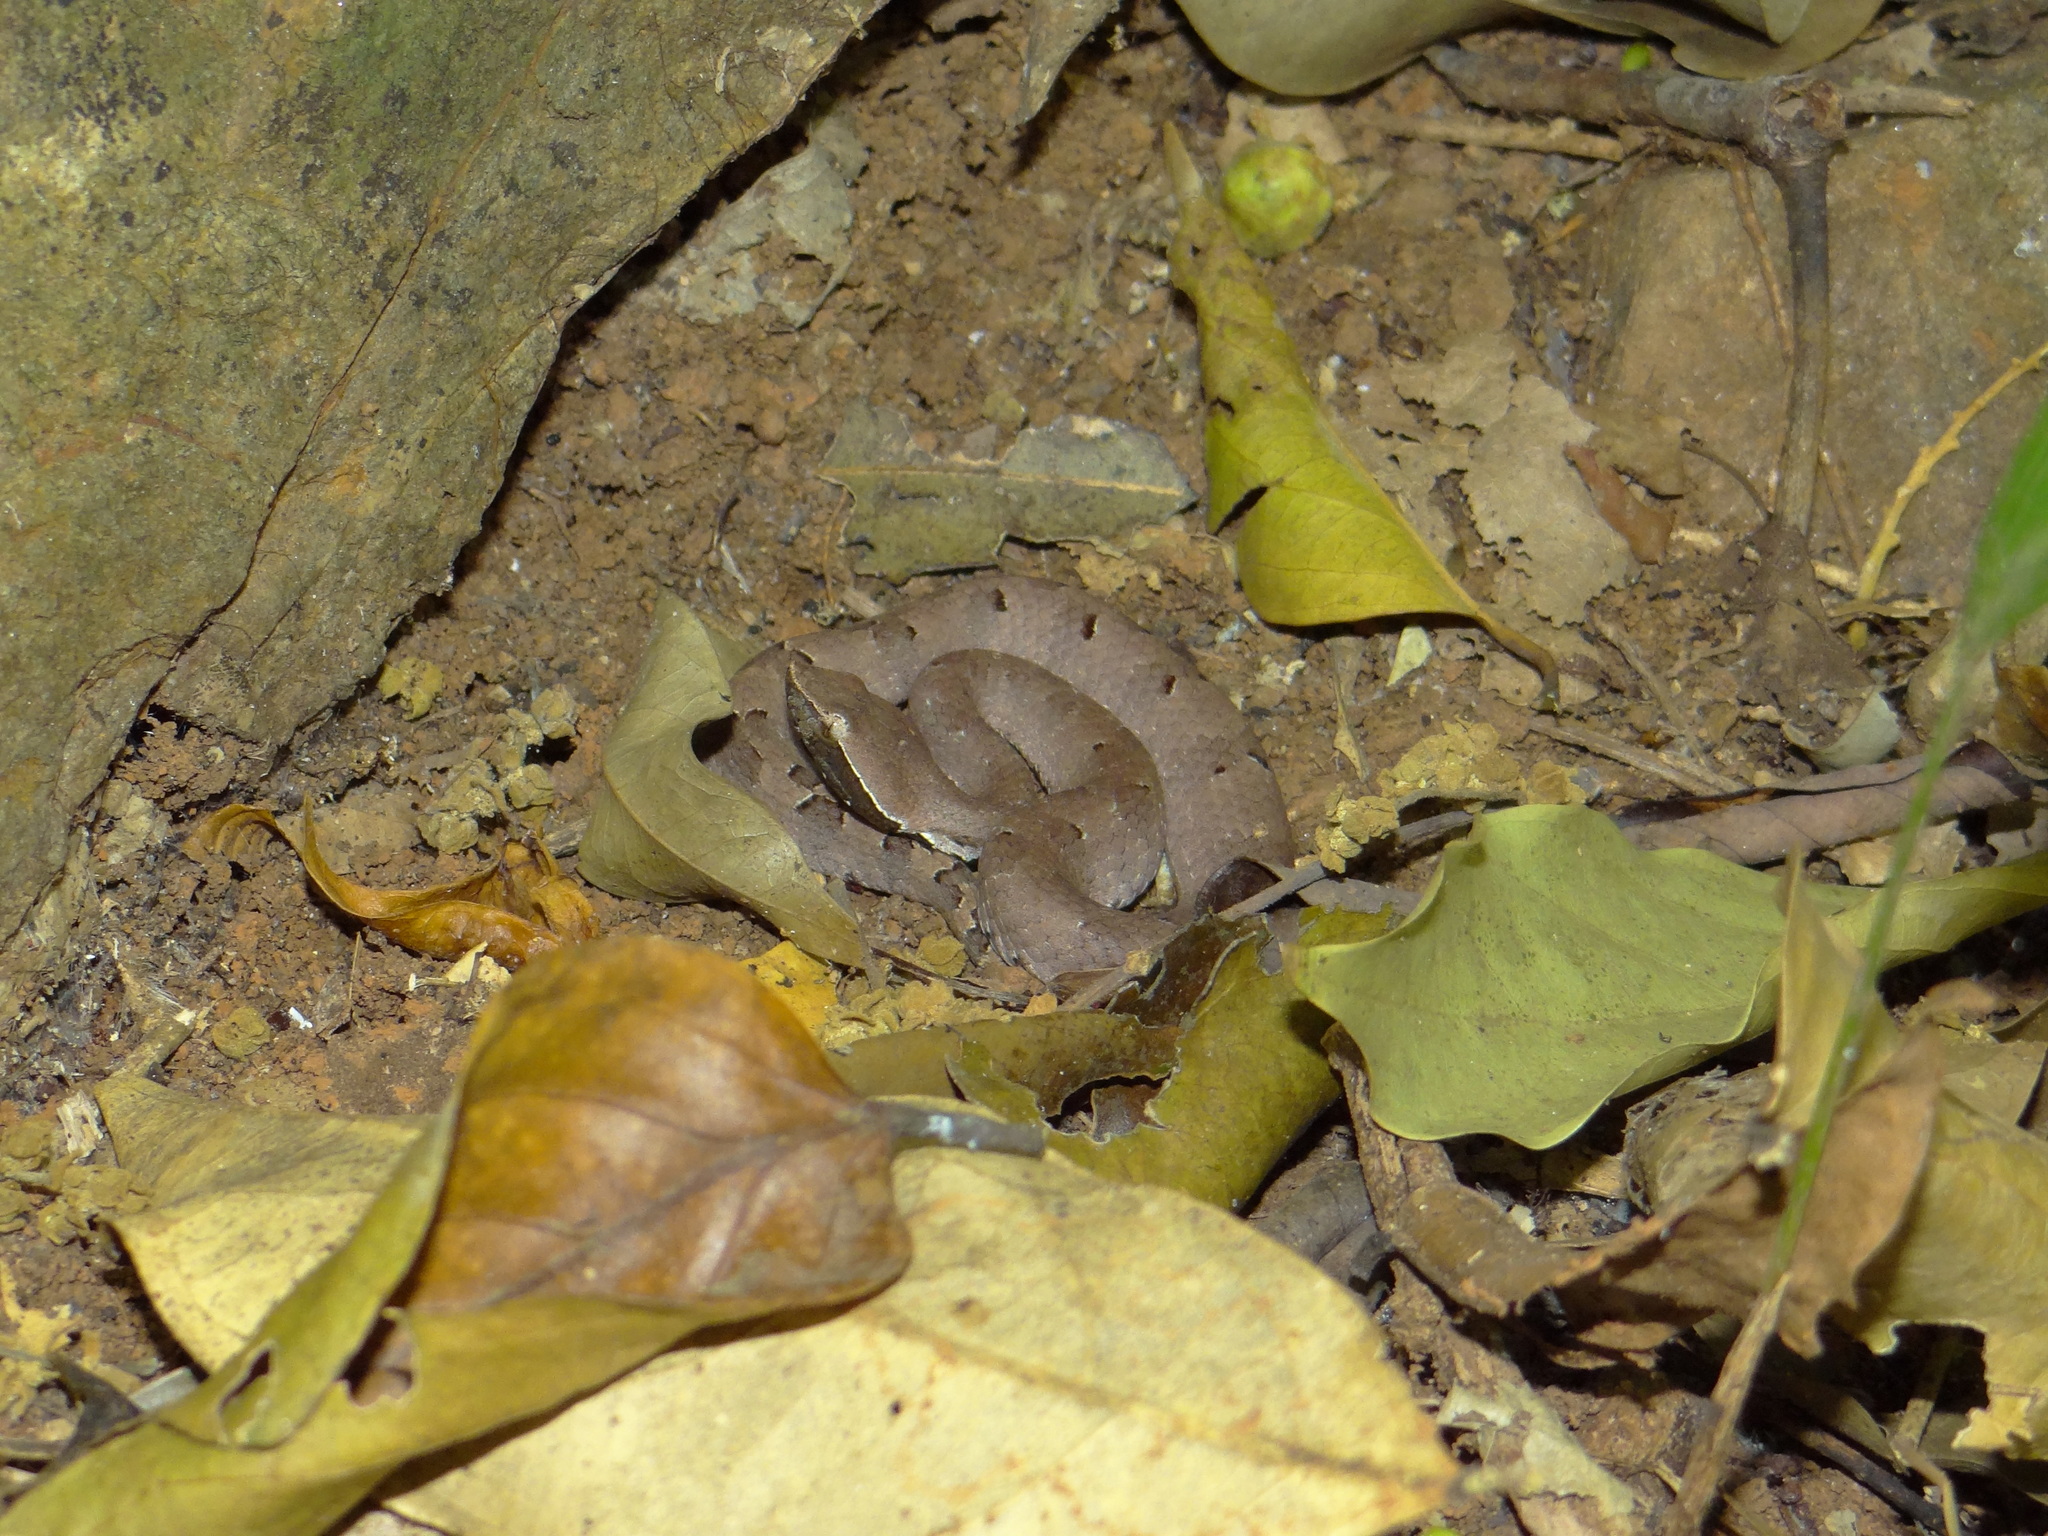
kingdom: Animalia
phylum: Chordata
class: Squamata
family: Viperidae
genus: Hypnale
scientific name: Hypnale hypnale
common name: Hump-nosed moccasin
